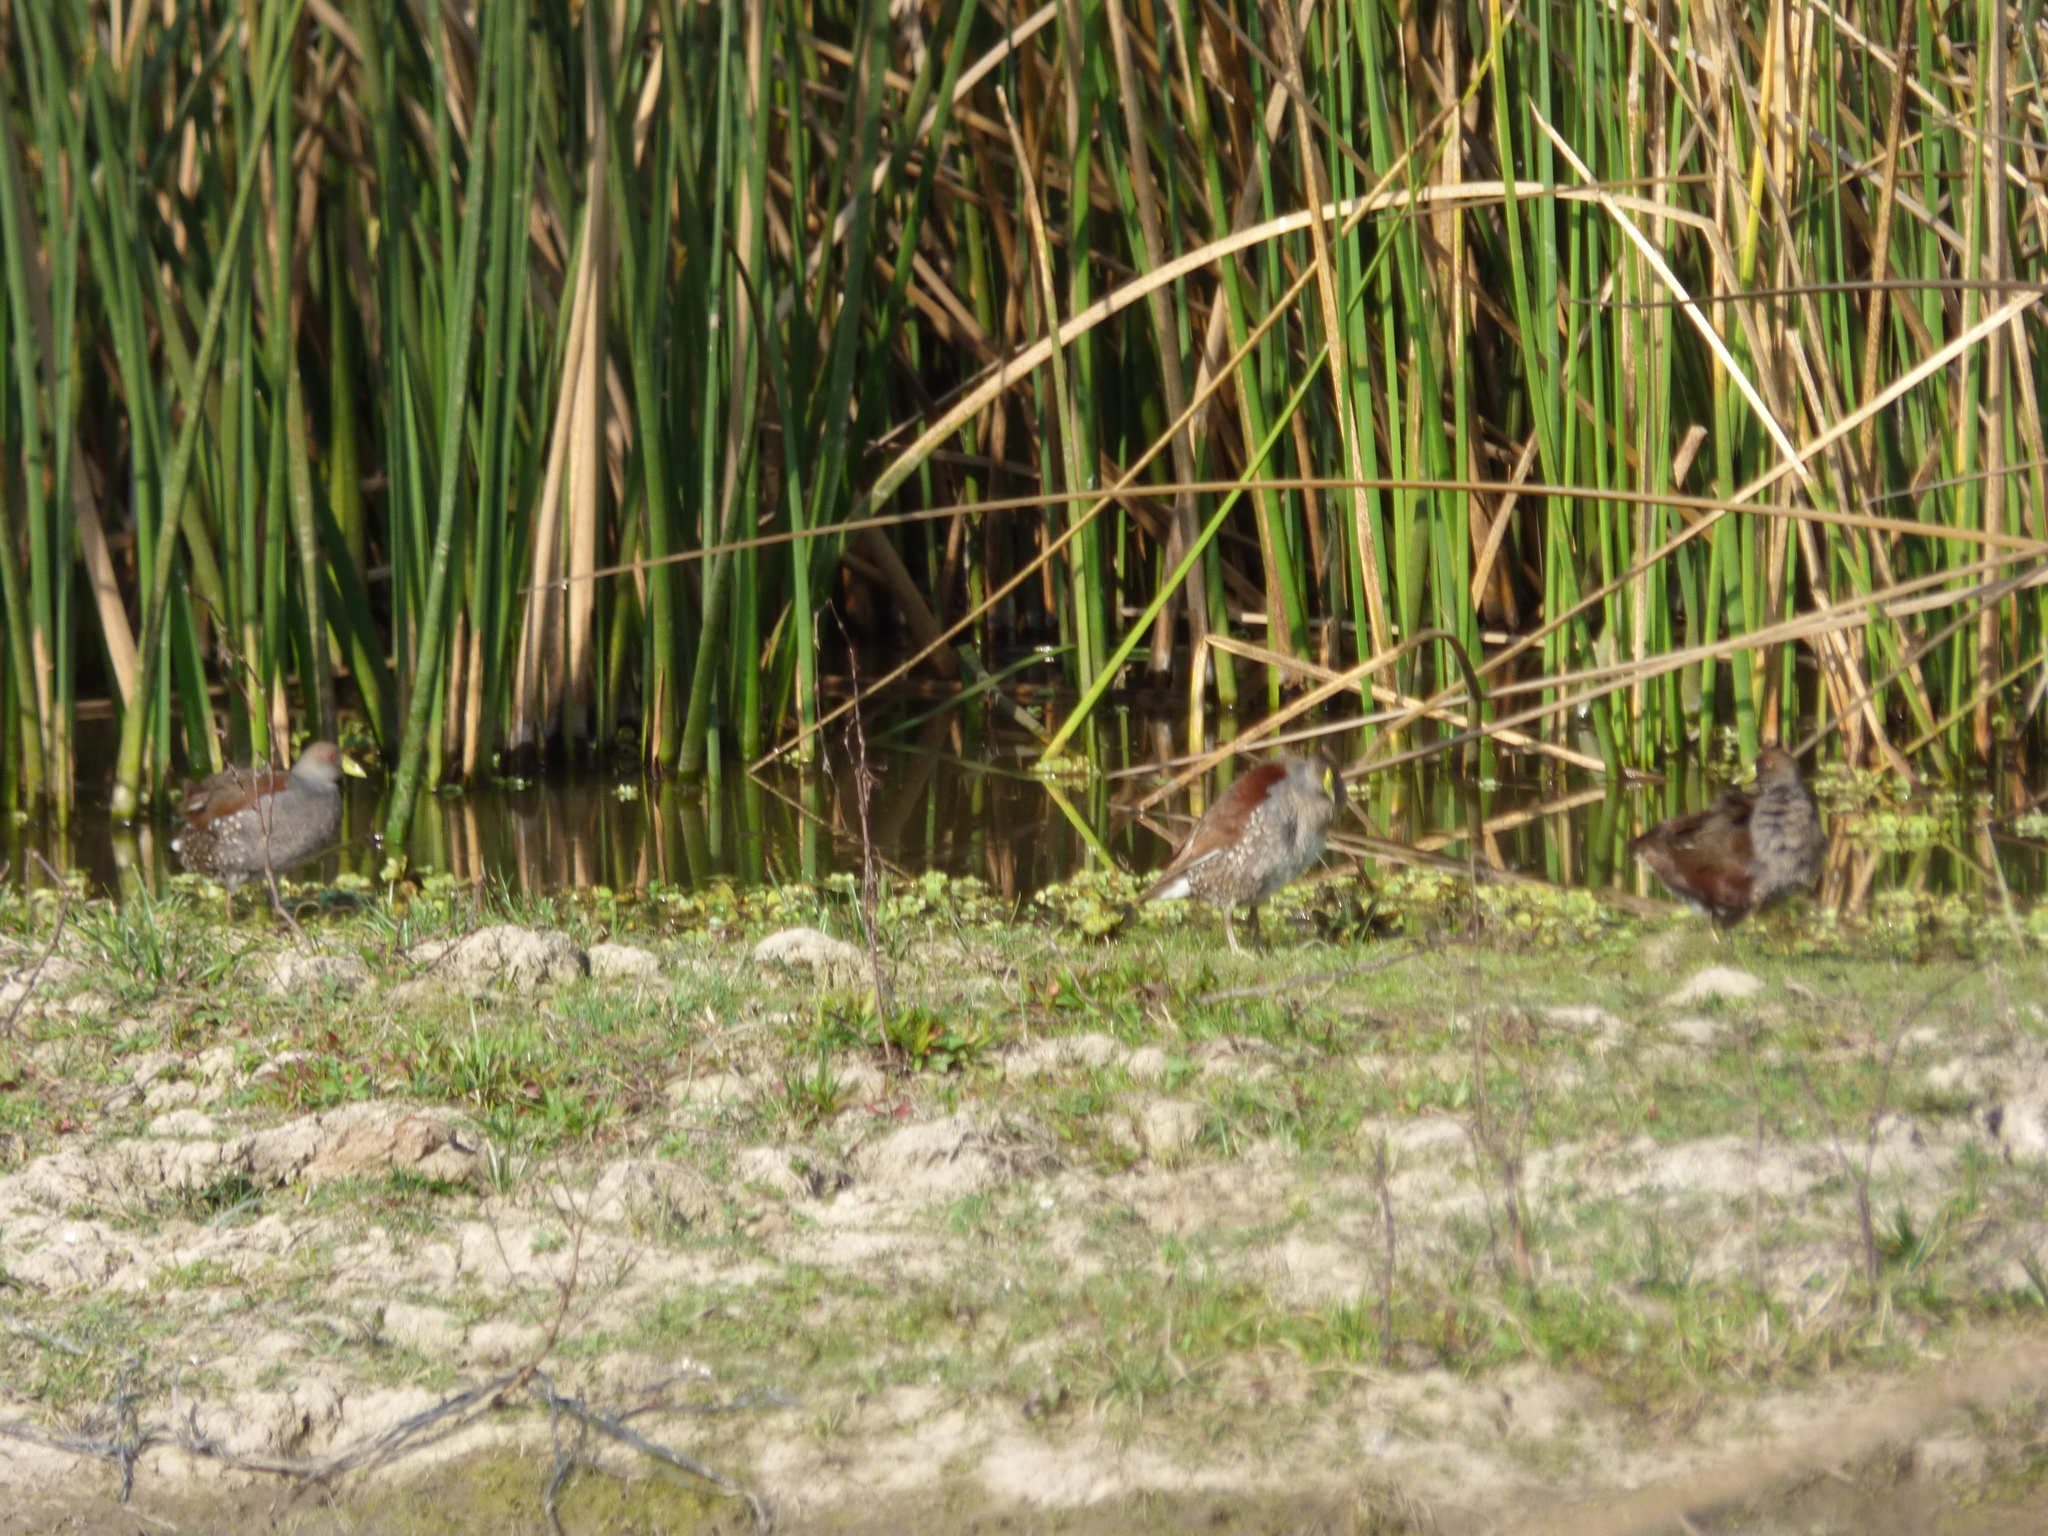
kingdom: Animalia
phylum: Chordata
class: Aves
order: Gruiformes
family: Rallidae
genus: Gallinula
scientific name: Gallinula melanops
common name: Spot-flanked gallinule
